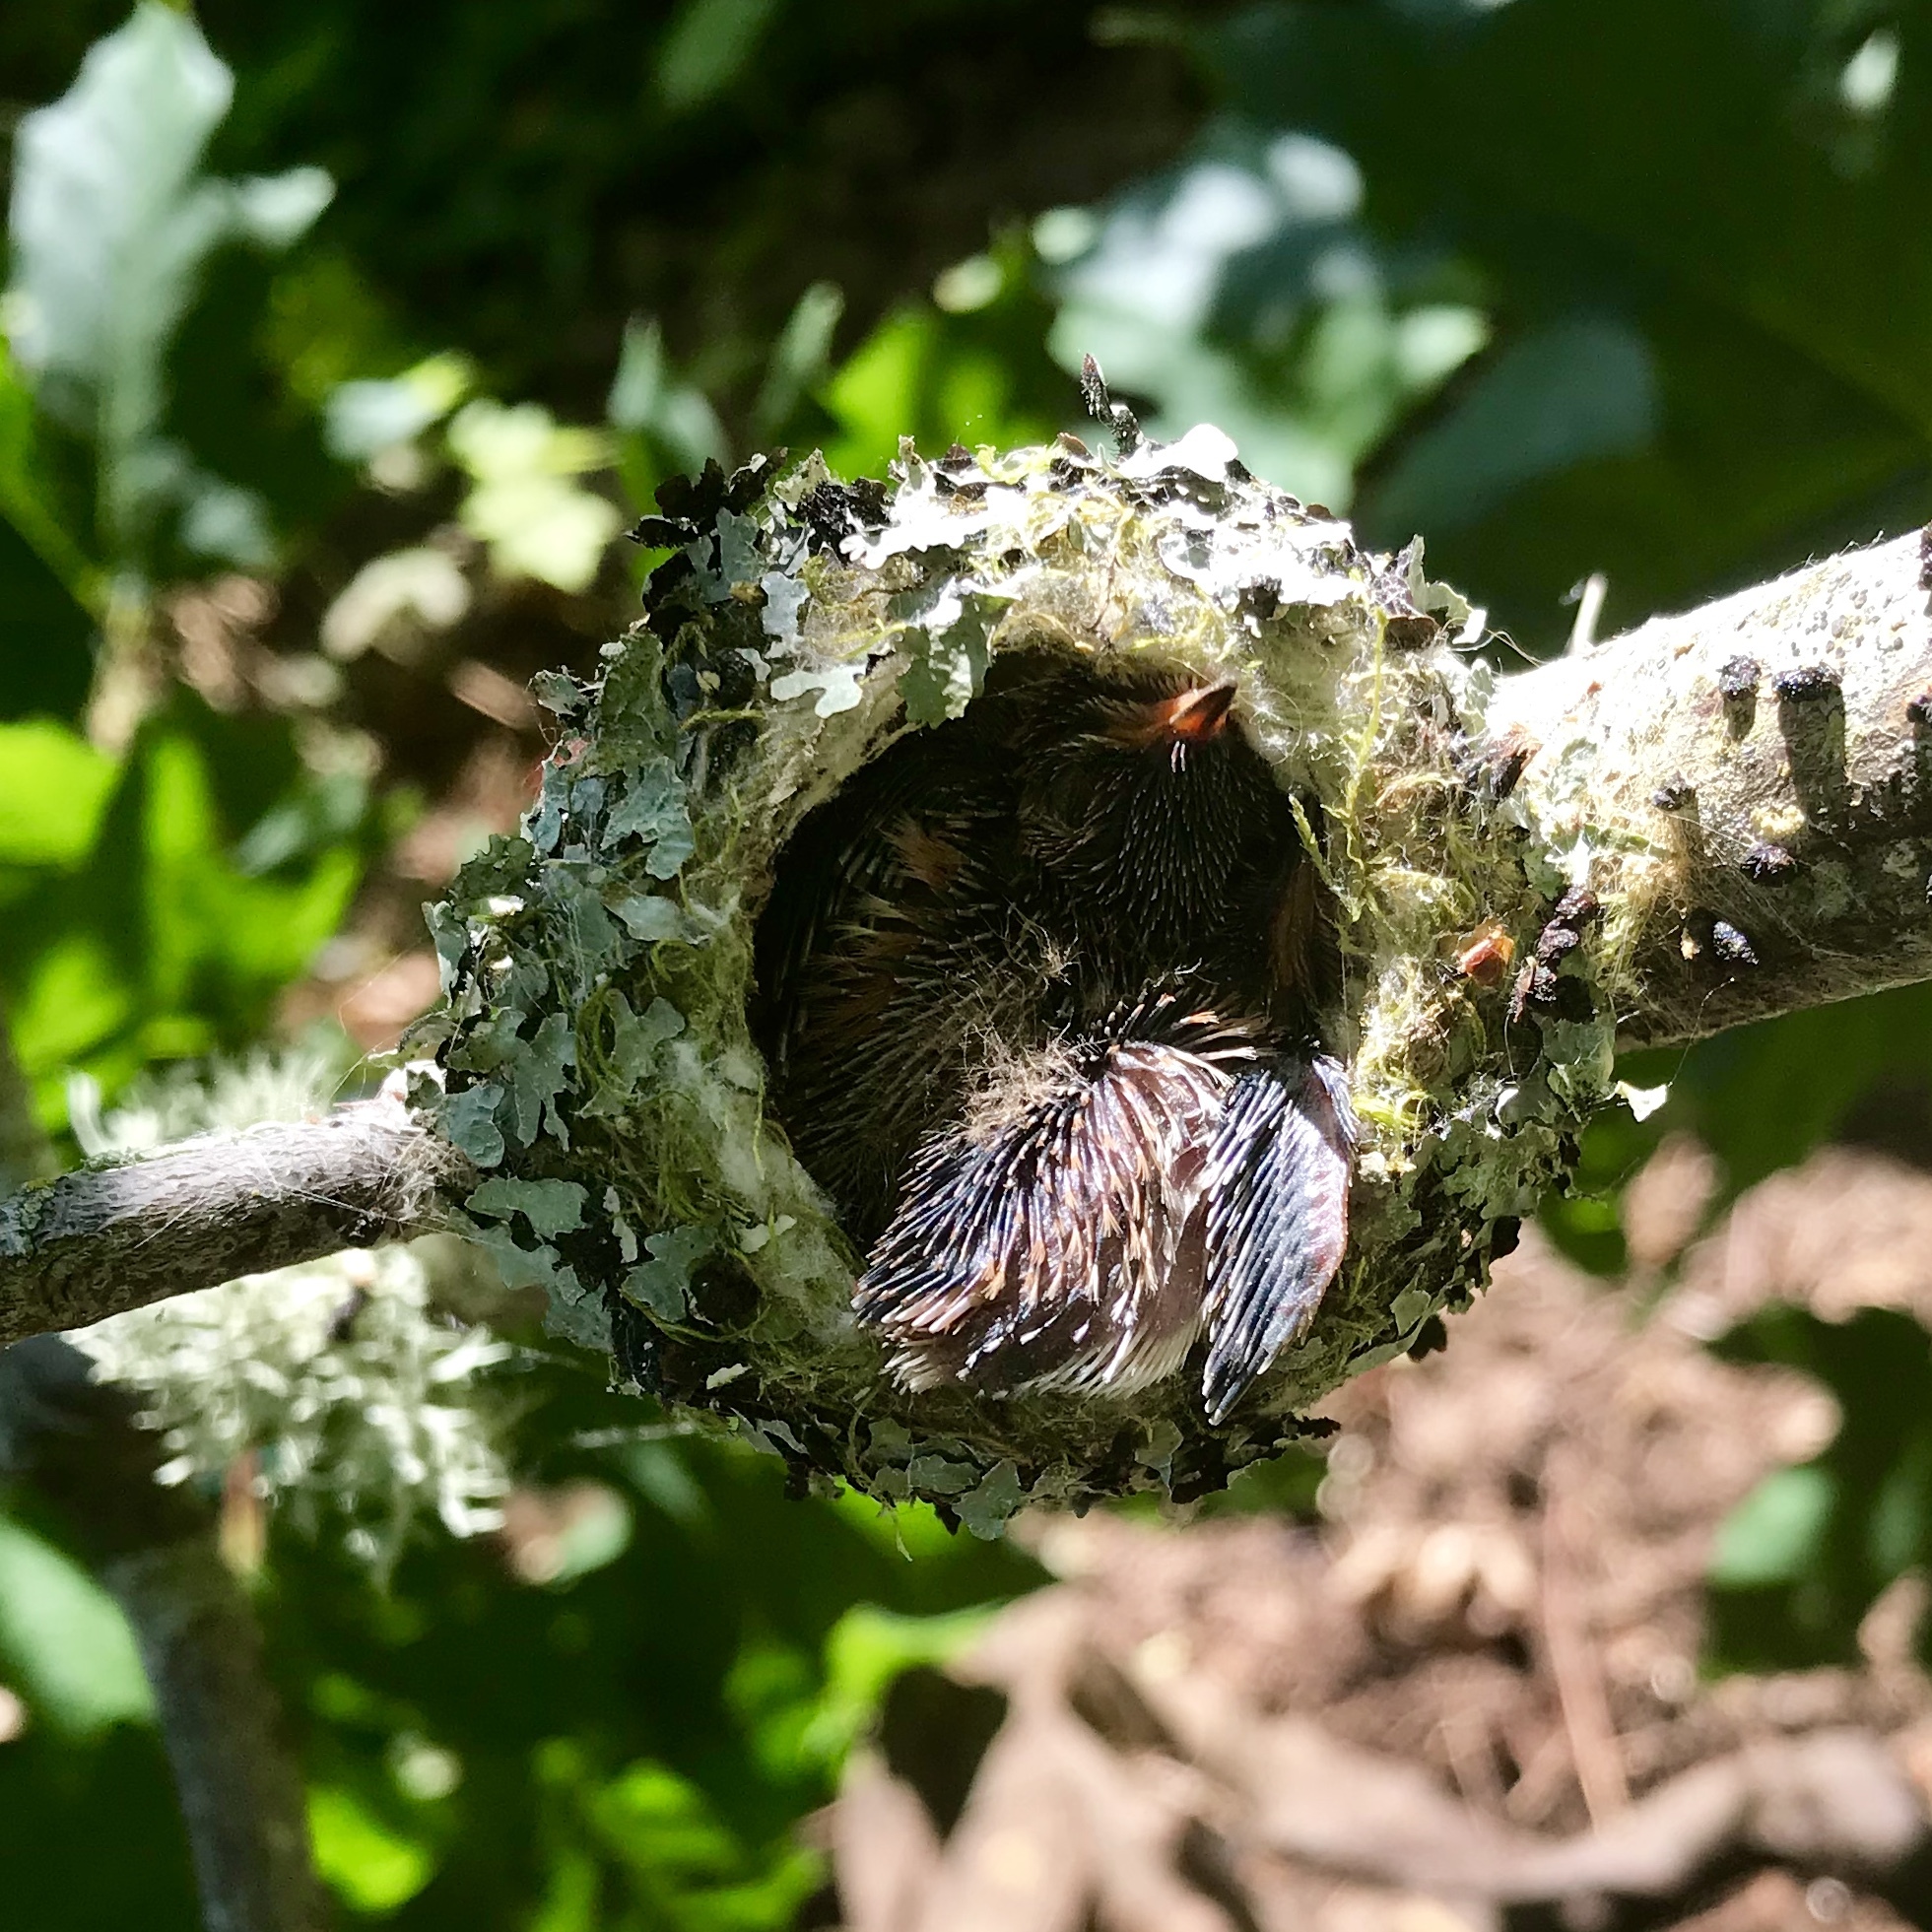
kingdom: Animalia
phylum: Chordata
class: Aves
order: Apodiformes
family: Trochilidae
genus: Selasphorus
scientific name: Selasphorus rufus
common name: Rufous hummingbird
